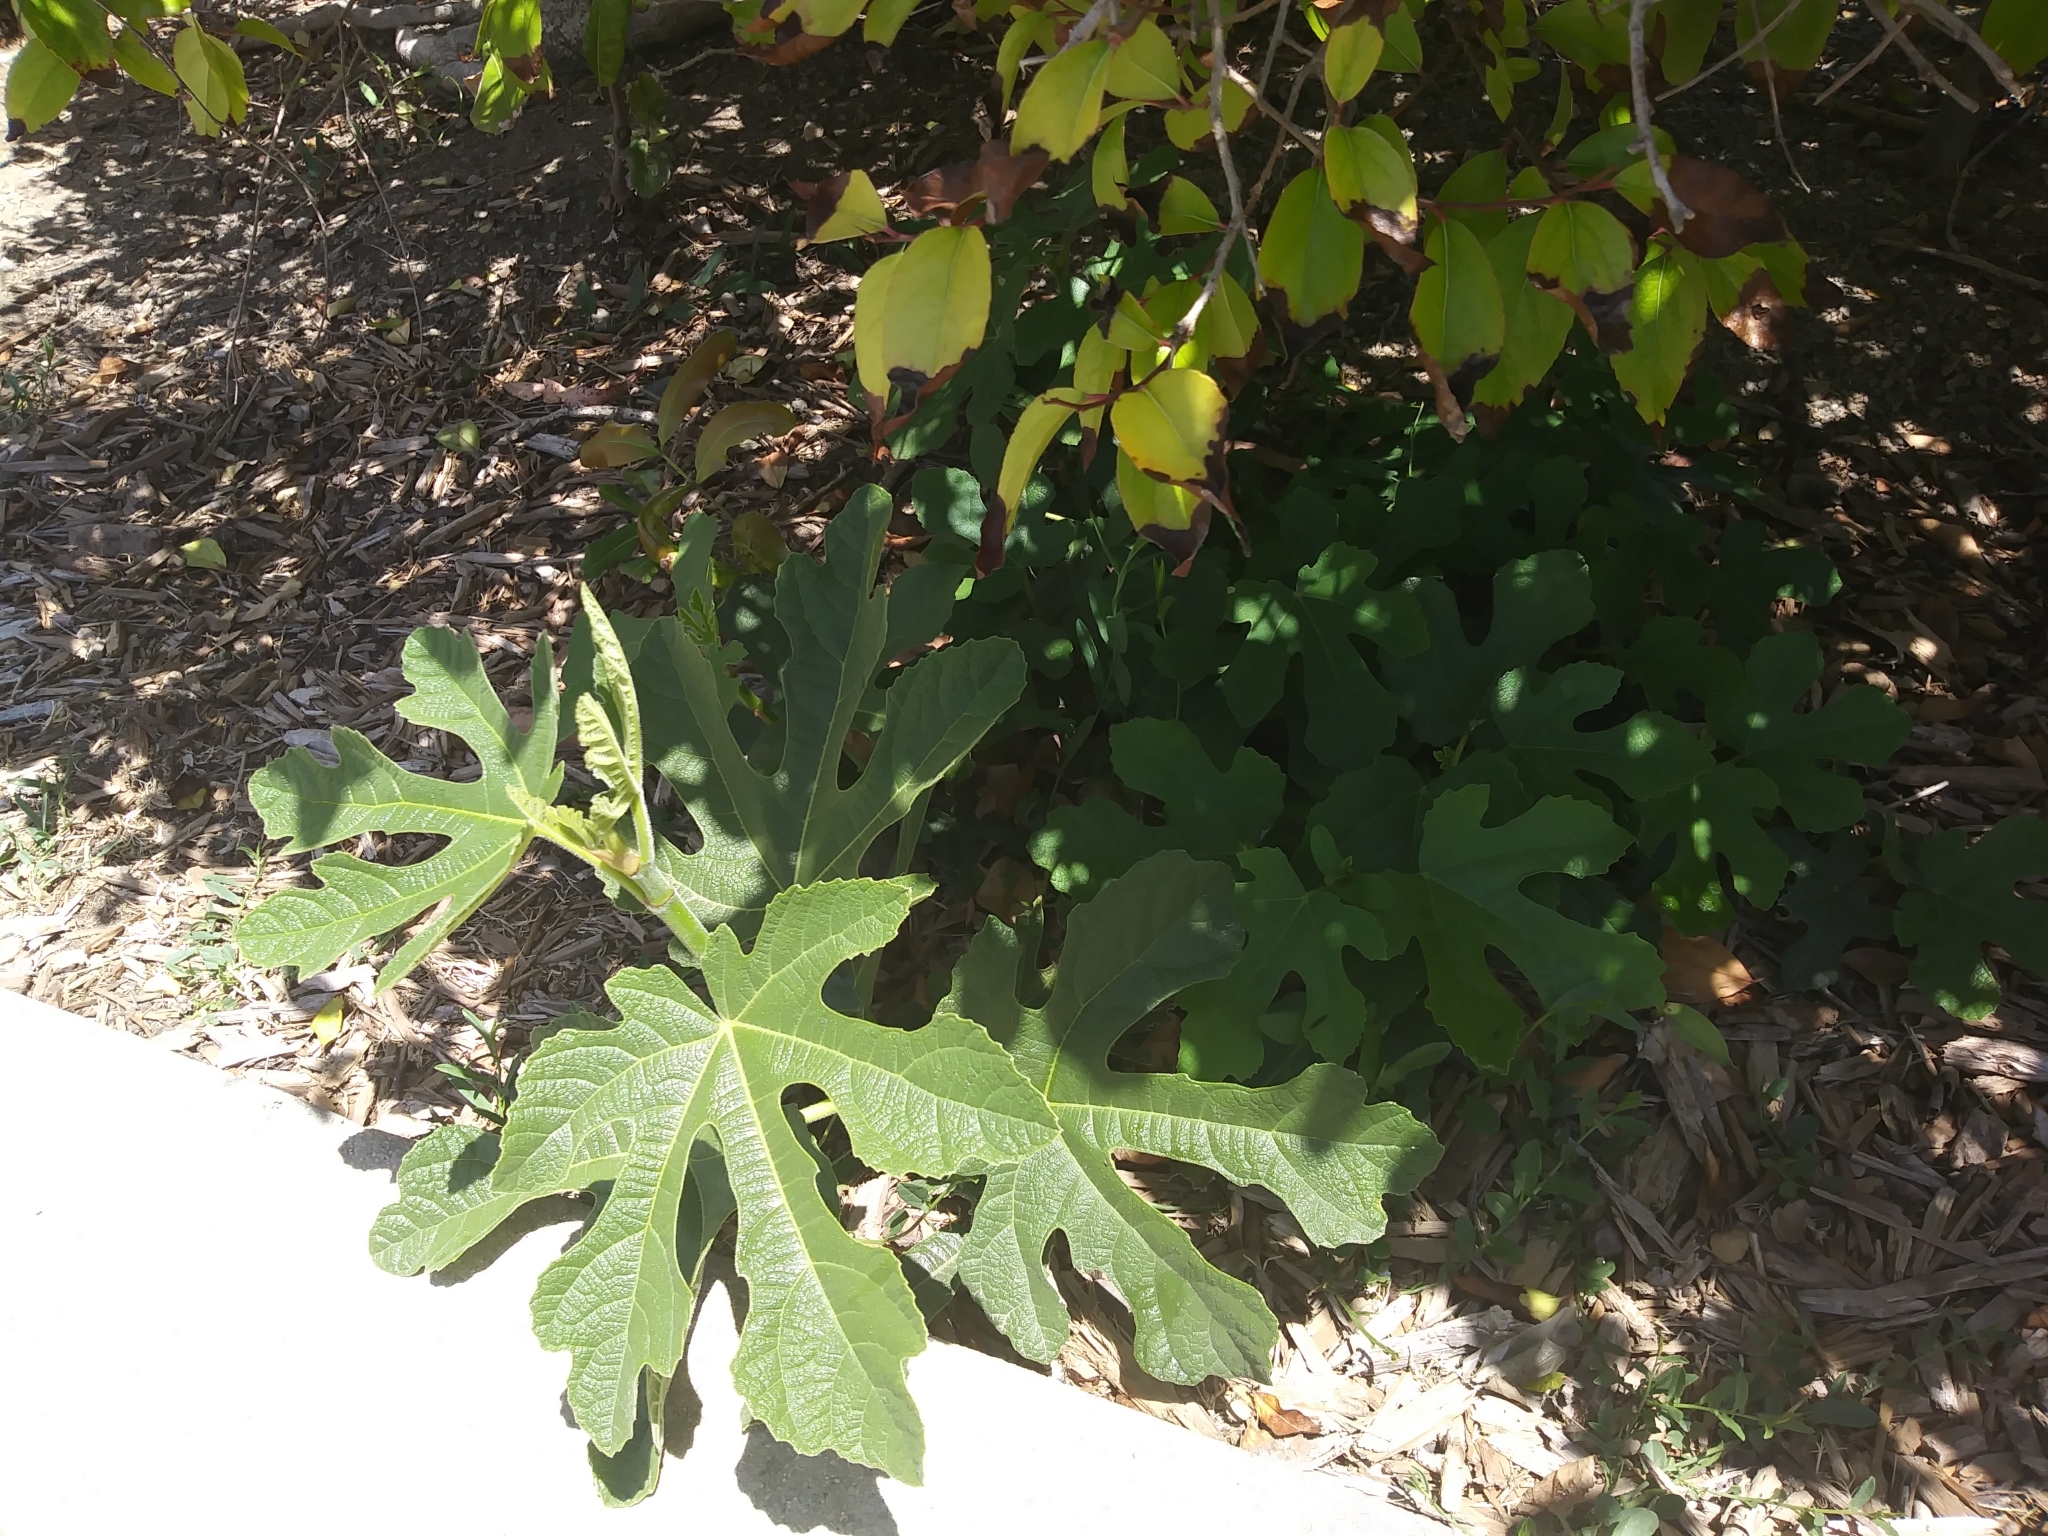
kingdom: Plantae
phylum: Tracheophyta
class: Magnoliopsida
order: Rosales
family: Moraceae
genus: Ficus
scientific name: Ficus carica
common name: Fig
